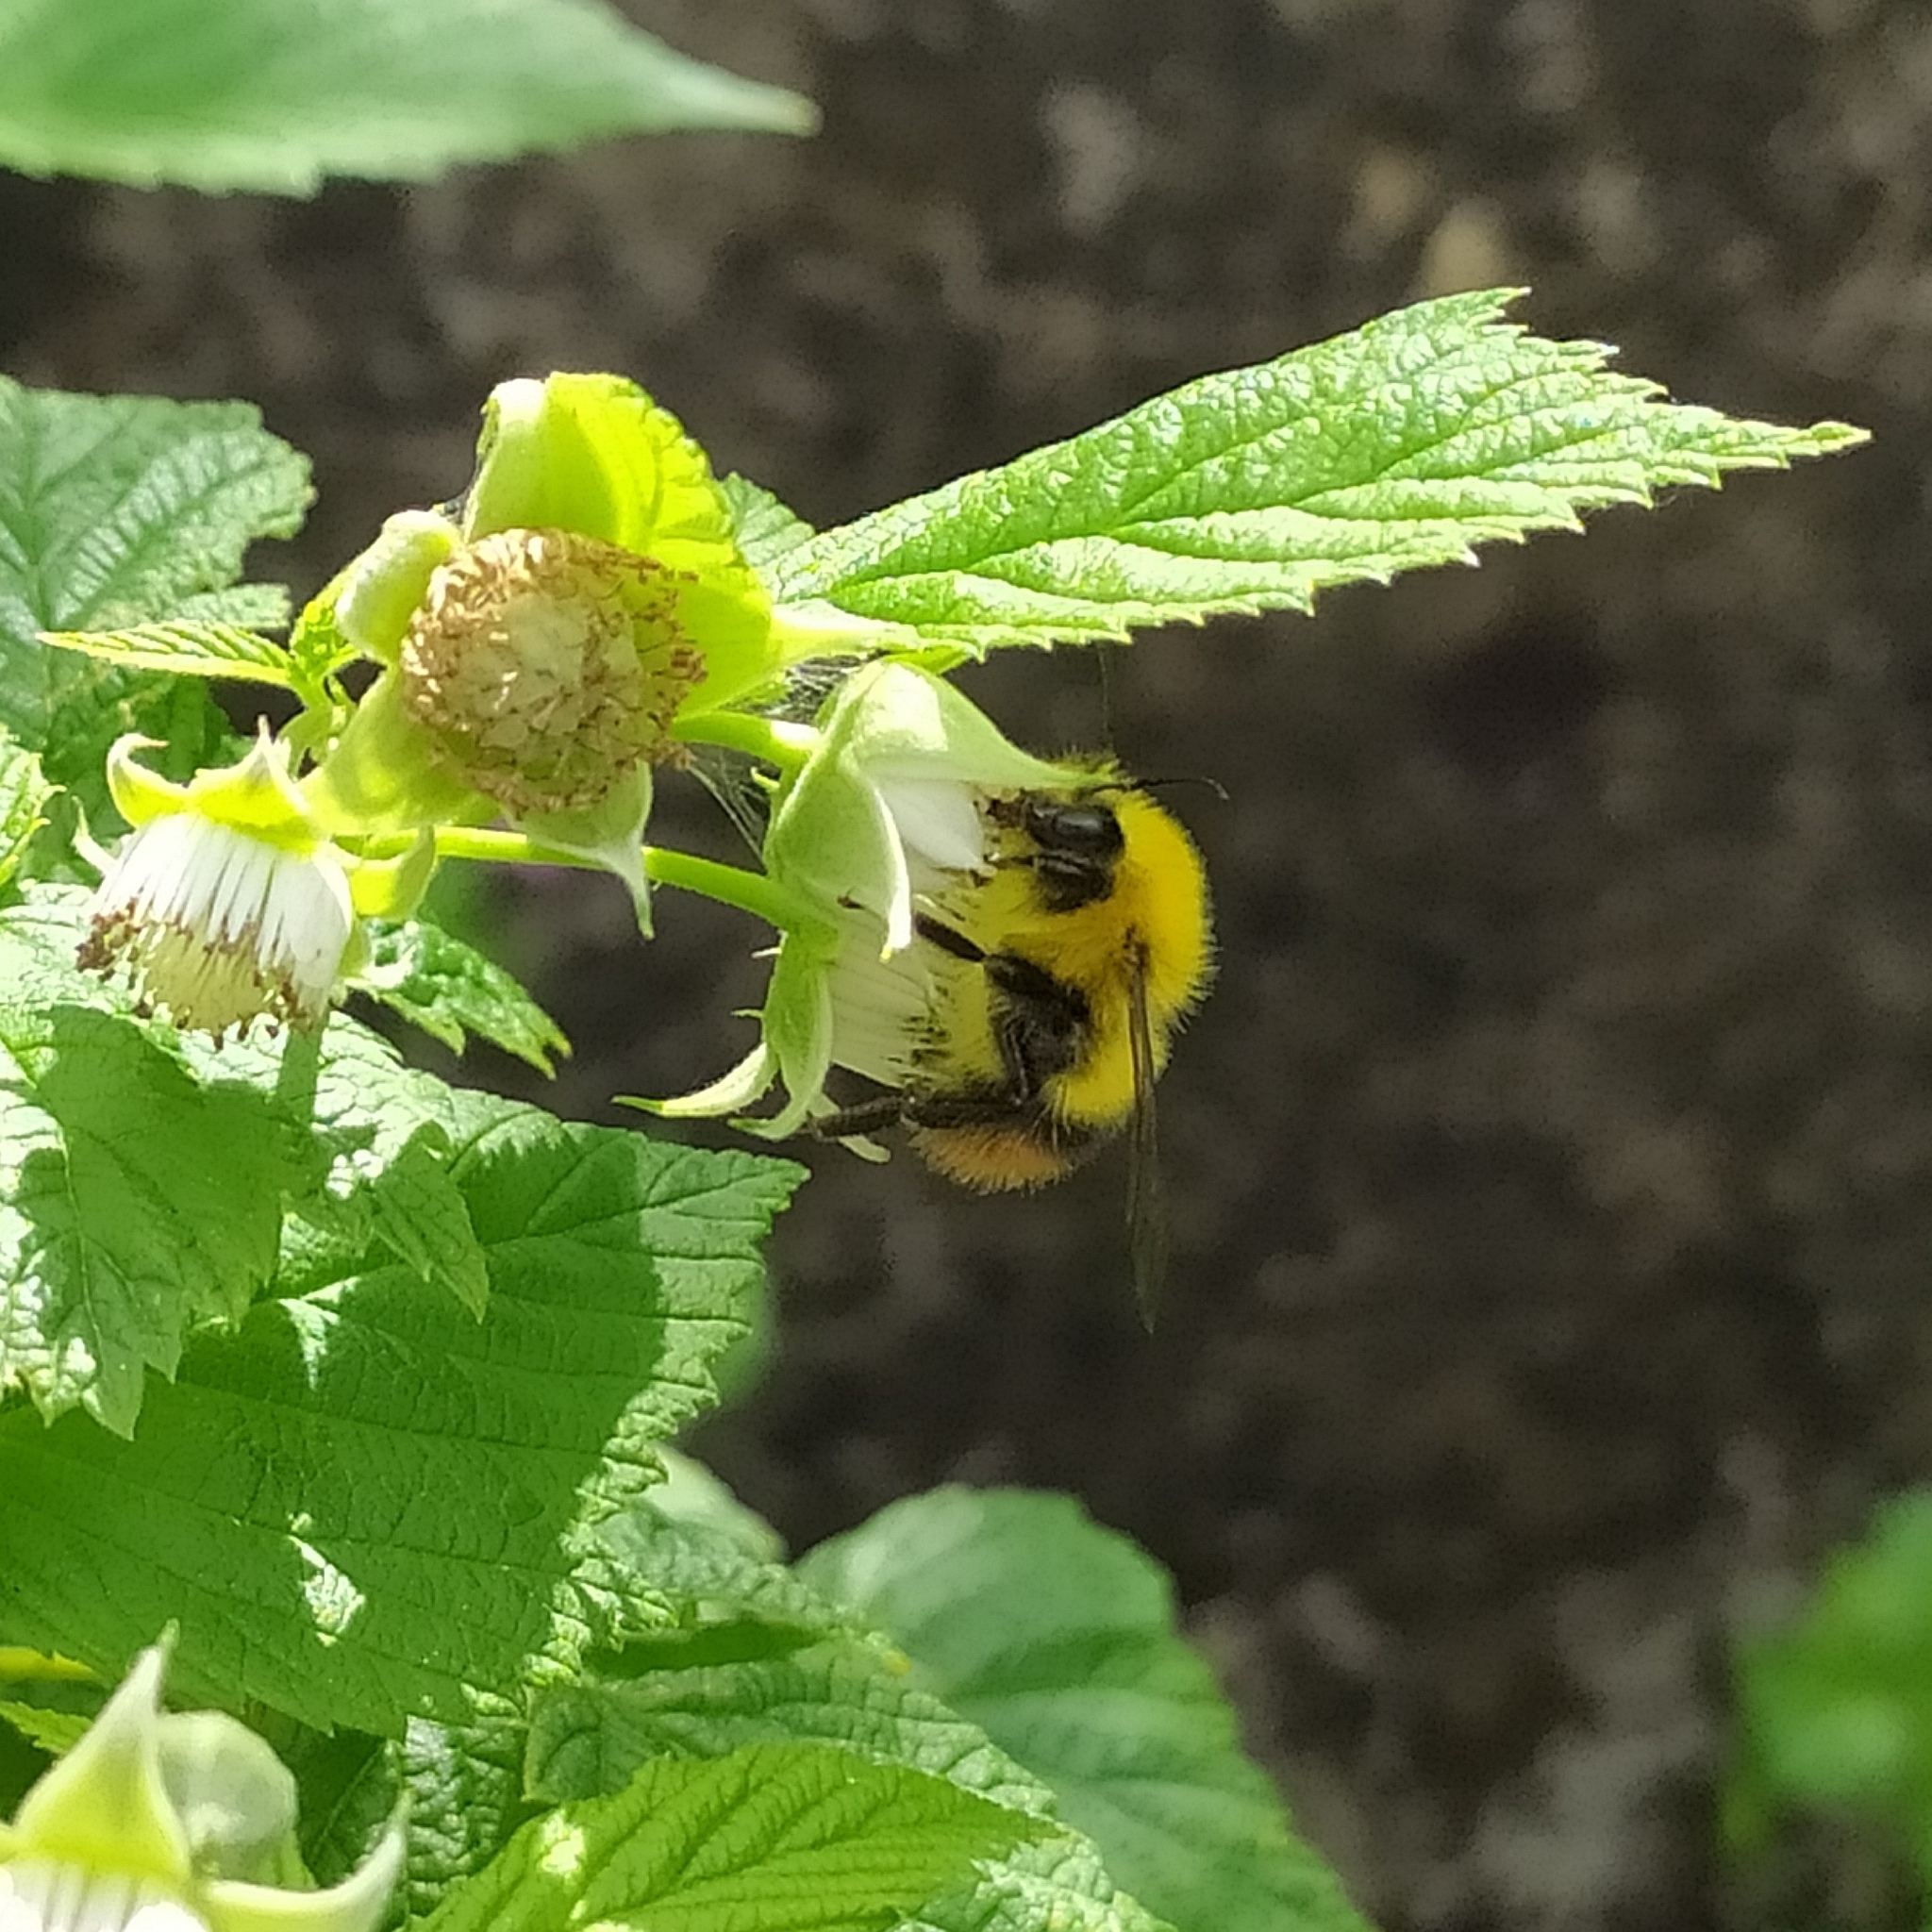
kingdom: Animalia
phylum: Arthropoda
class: Insecta
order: Hymenoptera
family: Apidae
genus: Bombus
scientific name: Bombus pratorum
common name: Early humble-bee
